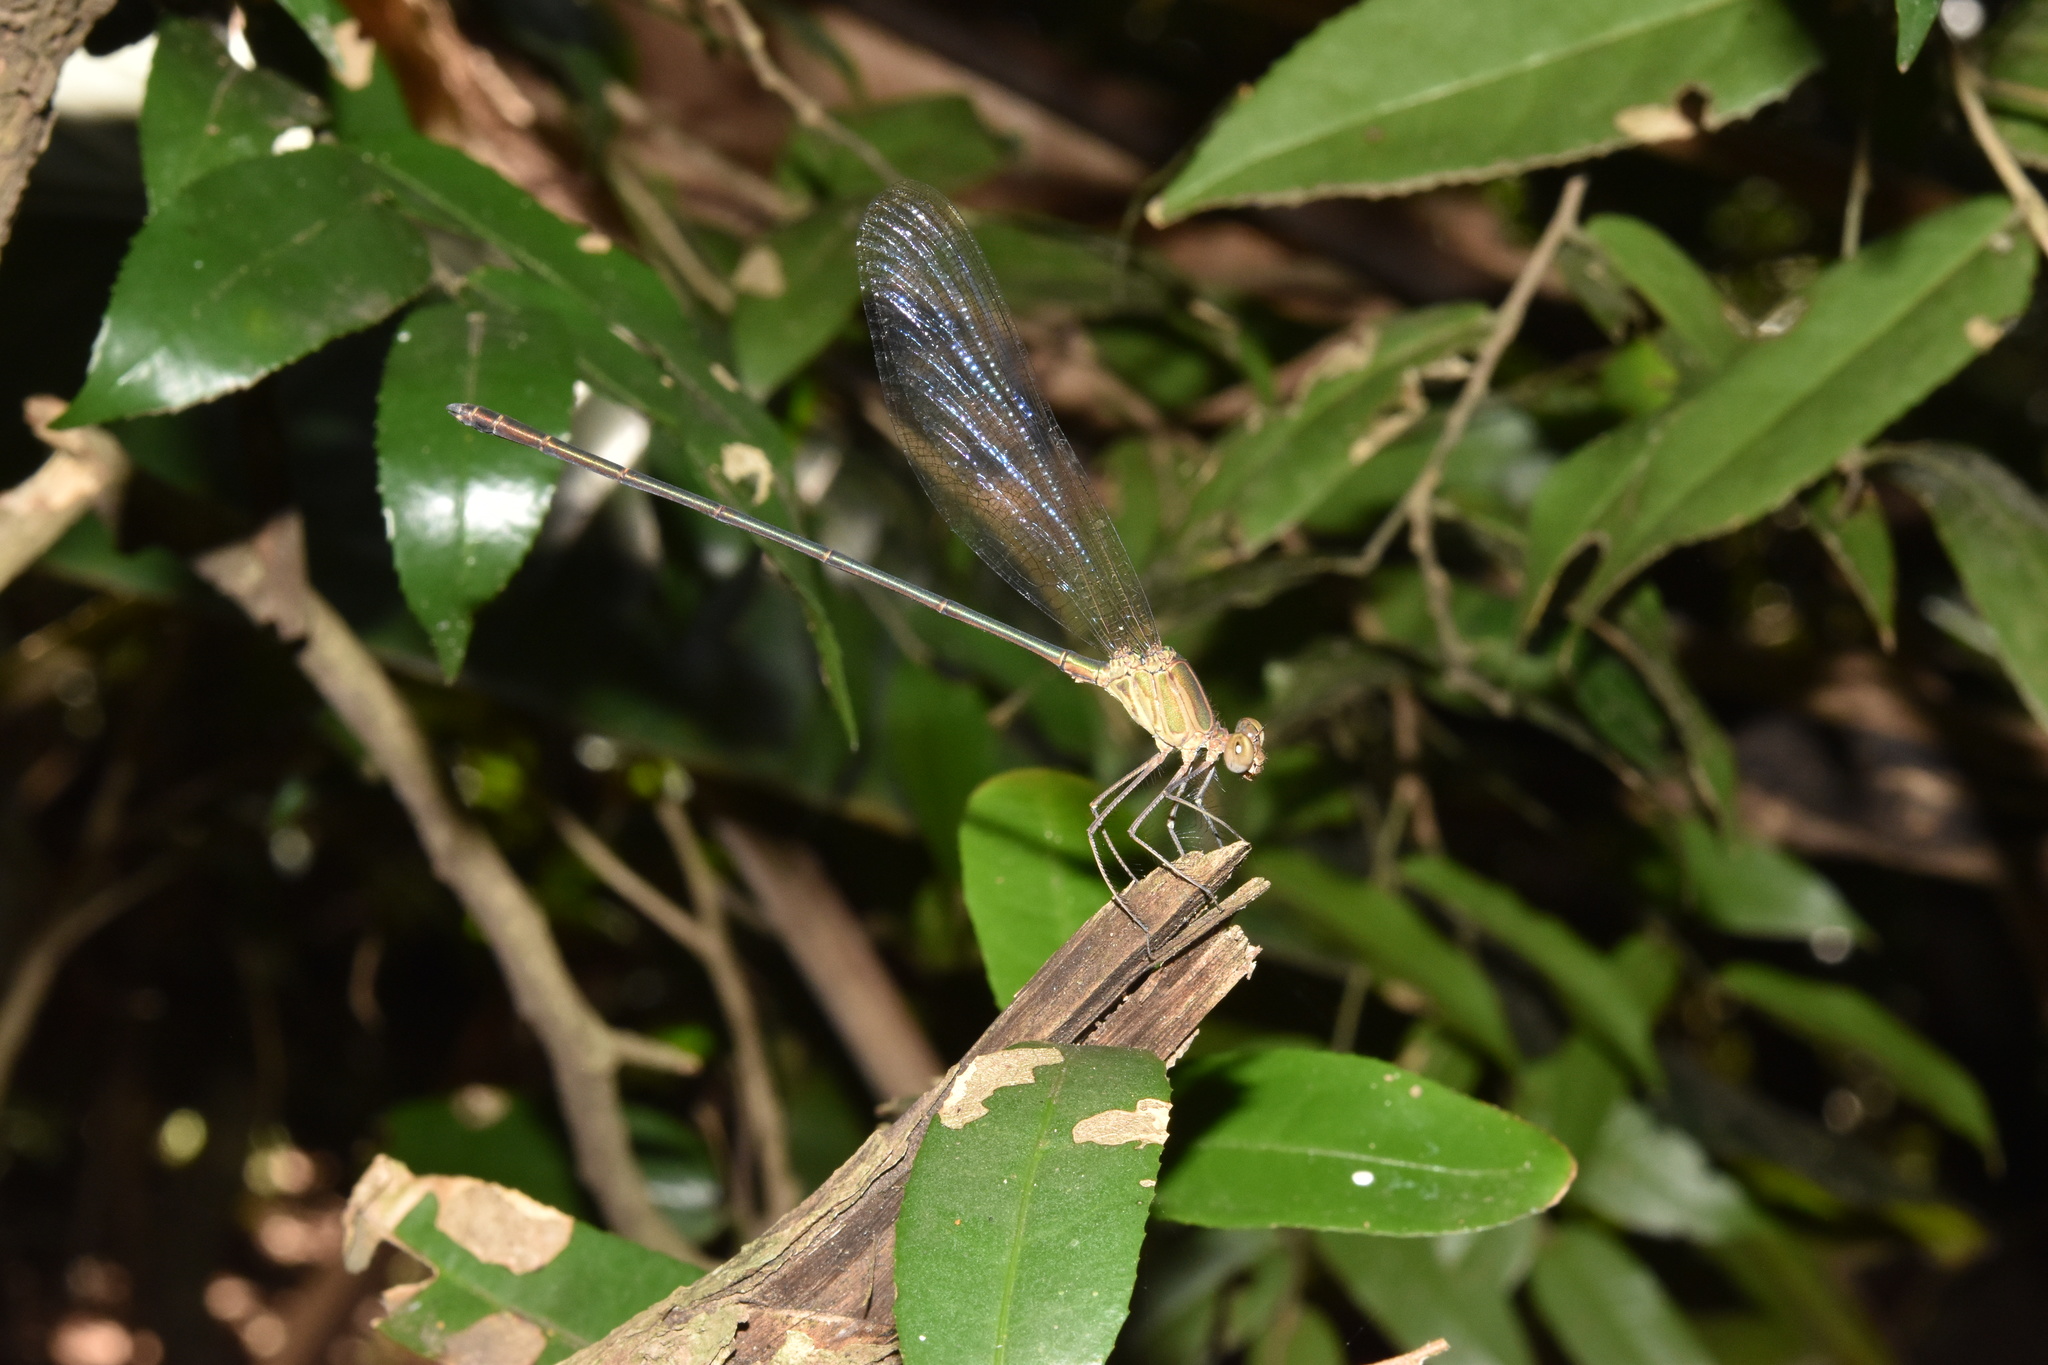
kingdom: Animalia
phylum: Arthropoda
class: Insecta
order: Odonata
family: Calopterygidae
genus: Phaon
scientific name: Phaon iridipennis
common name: Glistening demoiselle
